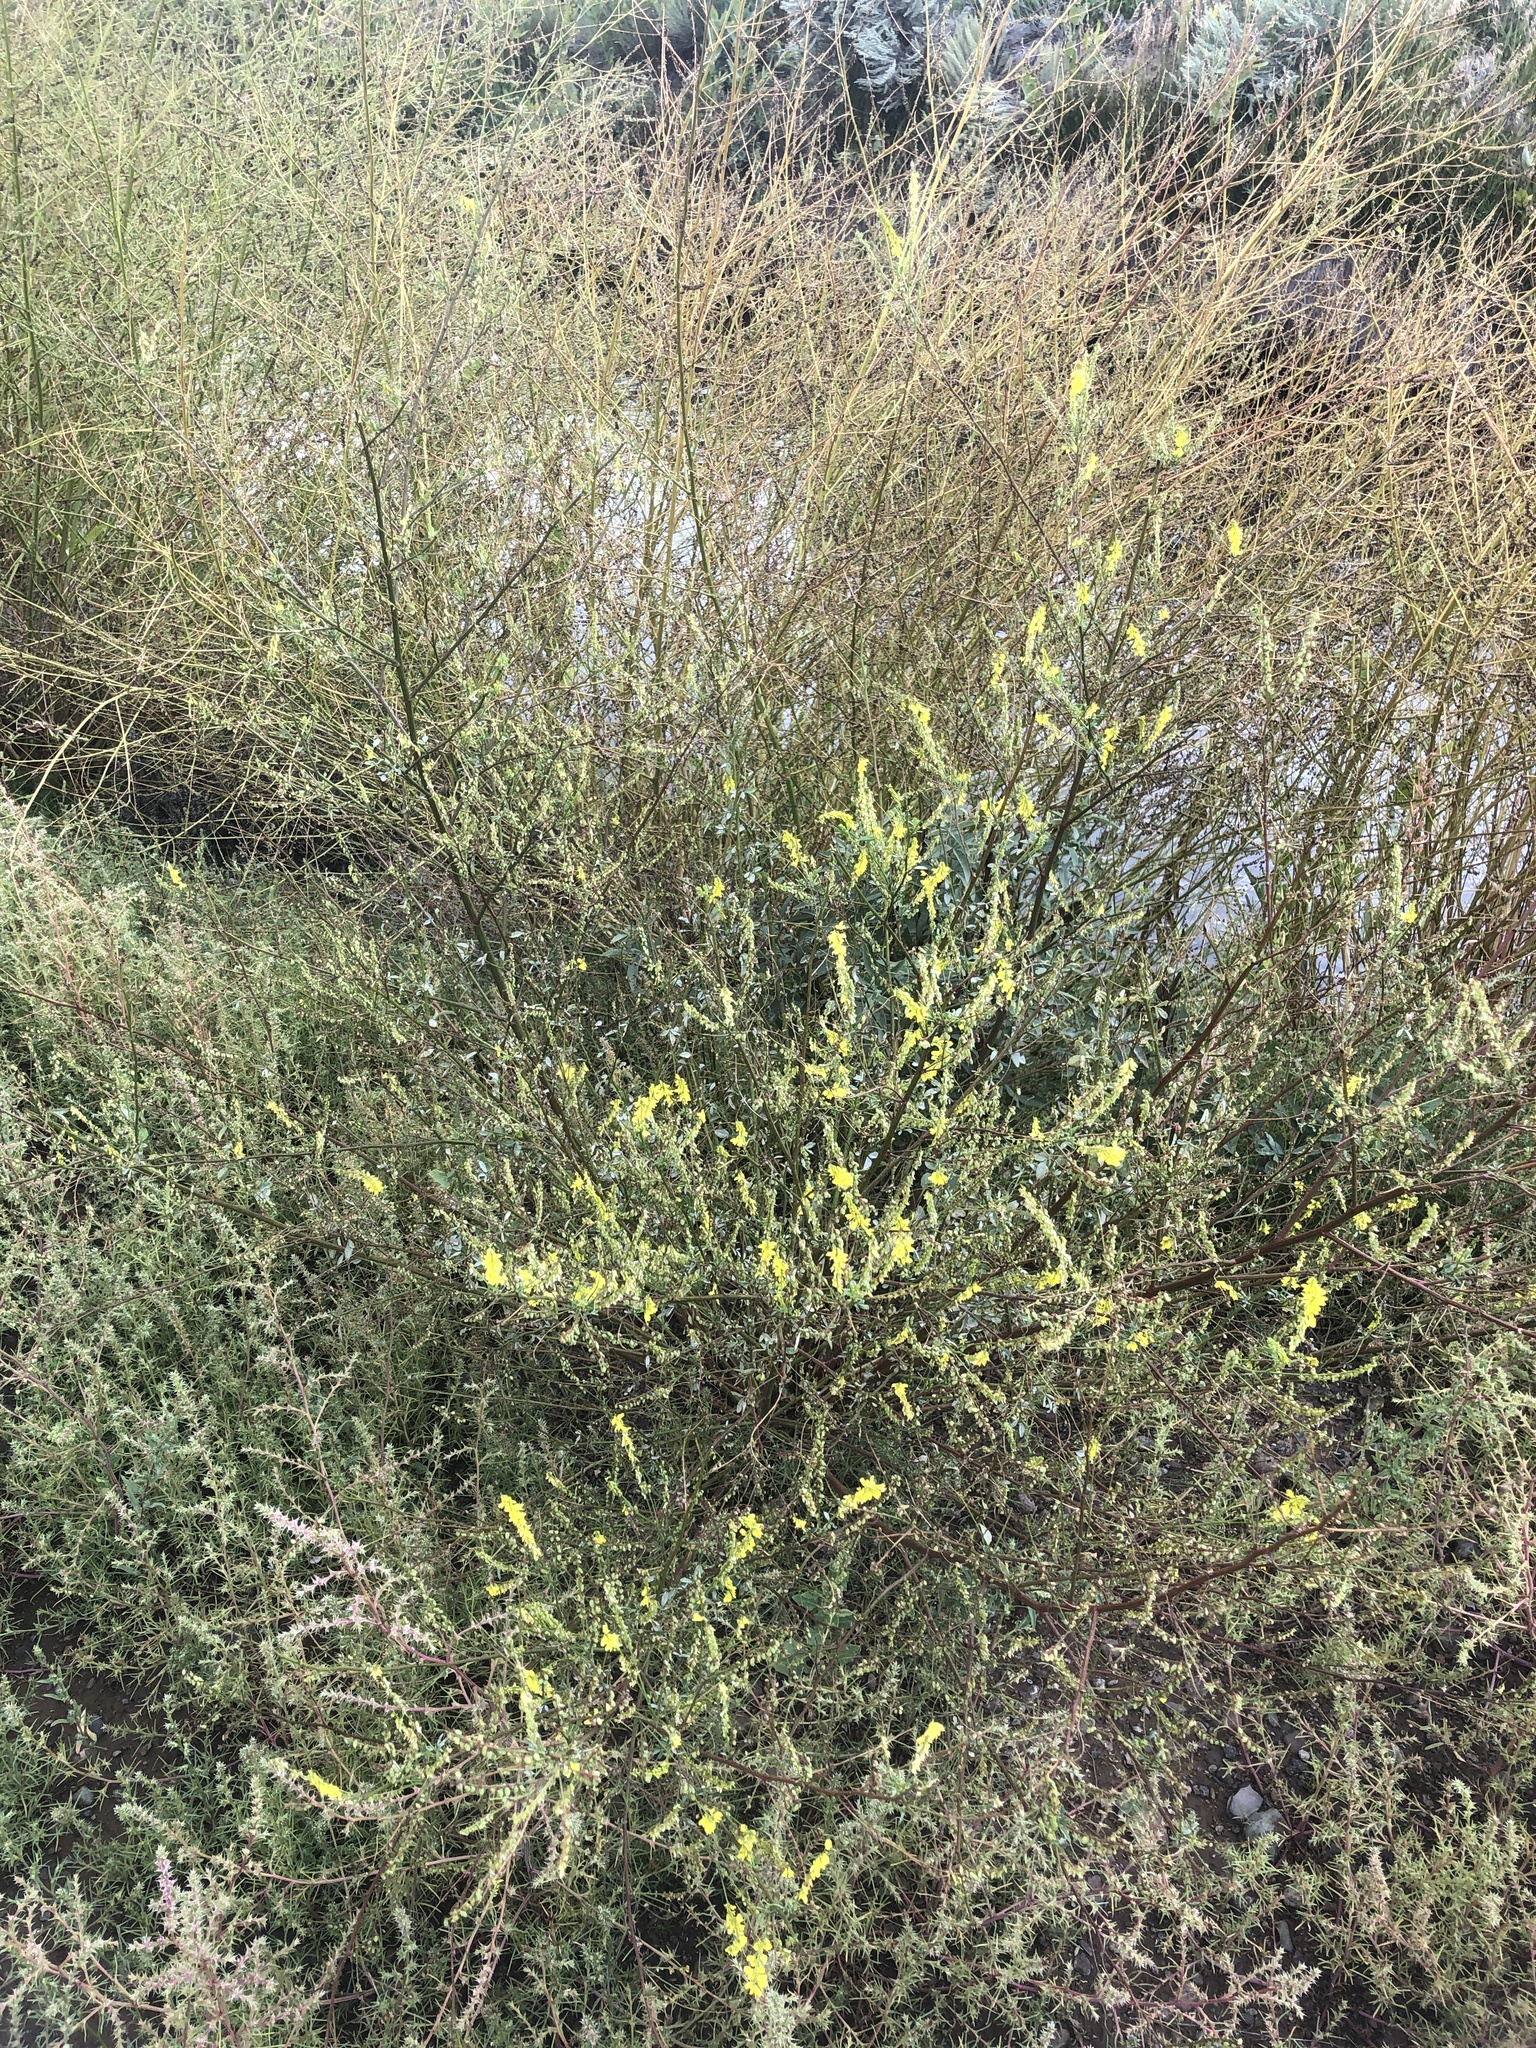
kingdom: Plantae
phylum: Tracheophyta
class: Magnoliopsida
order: Fabales
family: Fabaceae
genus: Melilotus
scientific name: Melilotus officinalis
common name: Sweetclover
